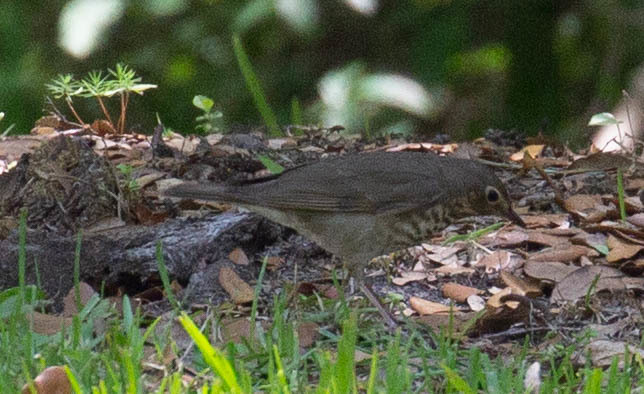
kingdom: Animalia
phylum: Chordata
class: Aves
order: Passeriformes
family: Turdidae
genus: Catharus
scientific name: Catharus ustulatus
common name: Swainson's thrush
